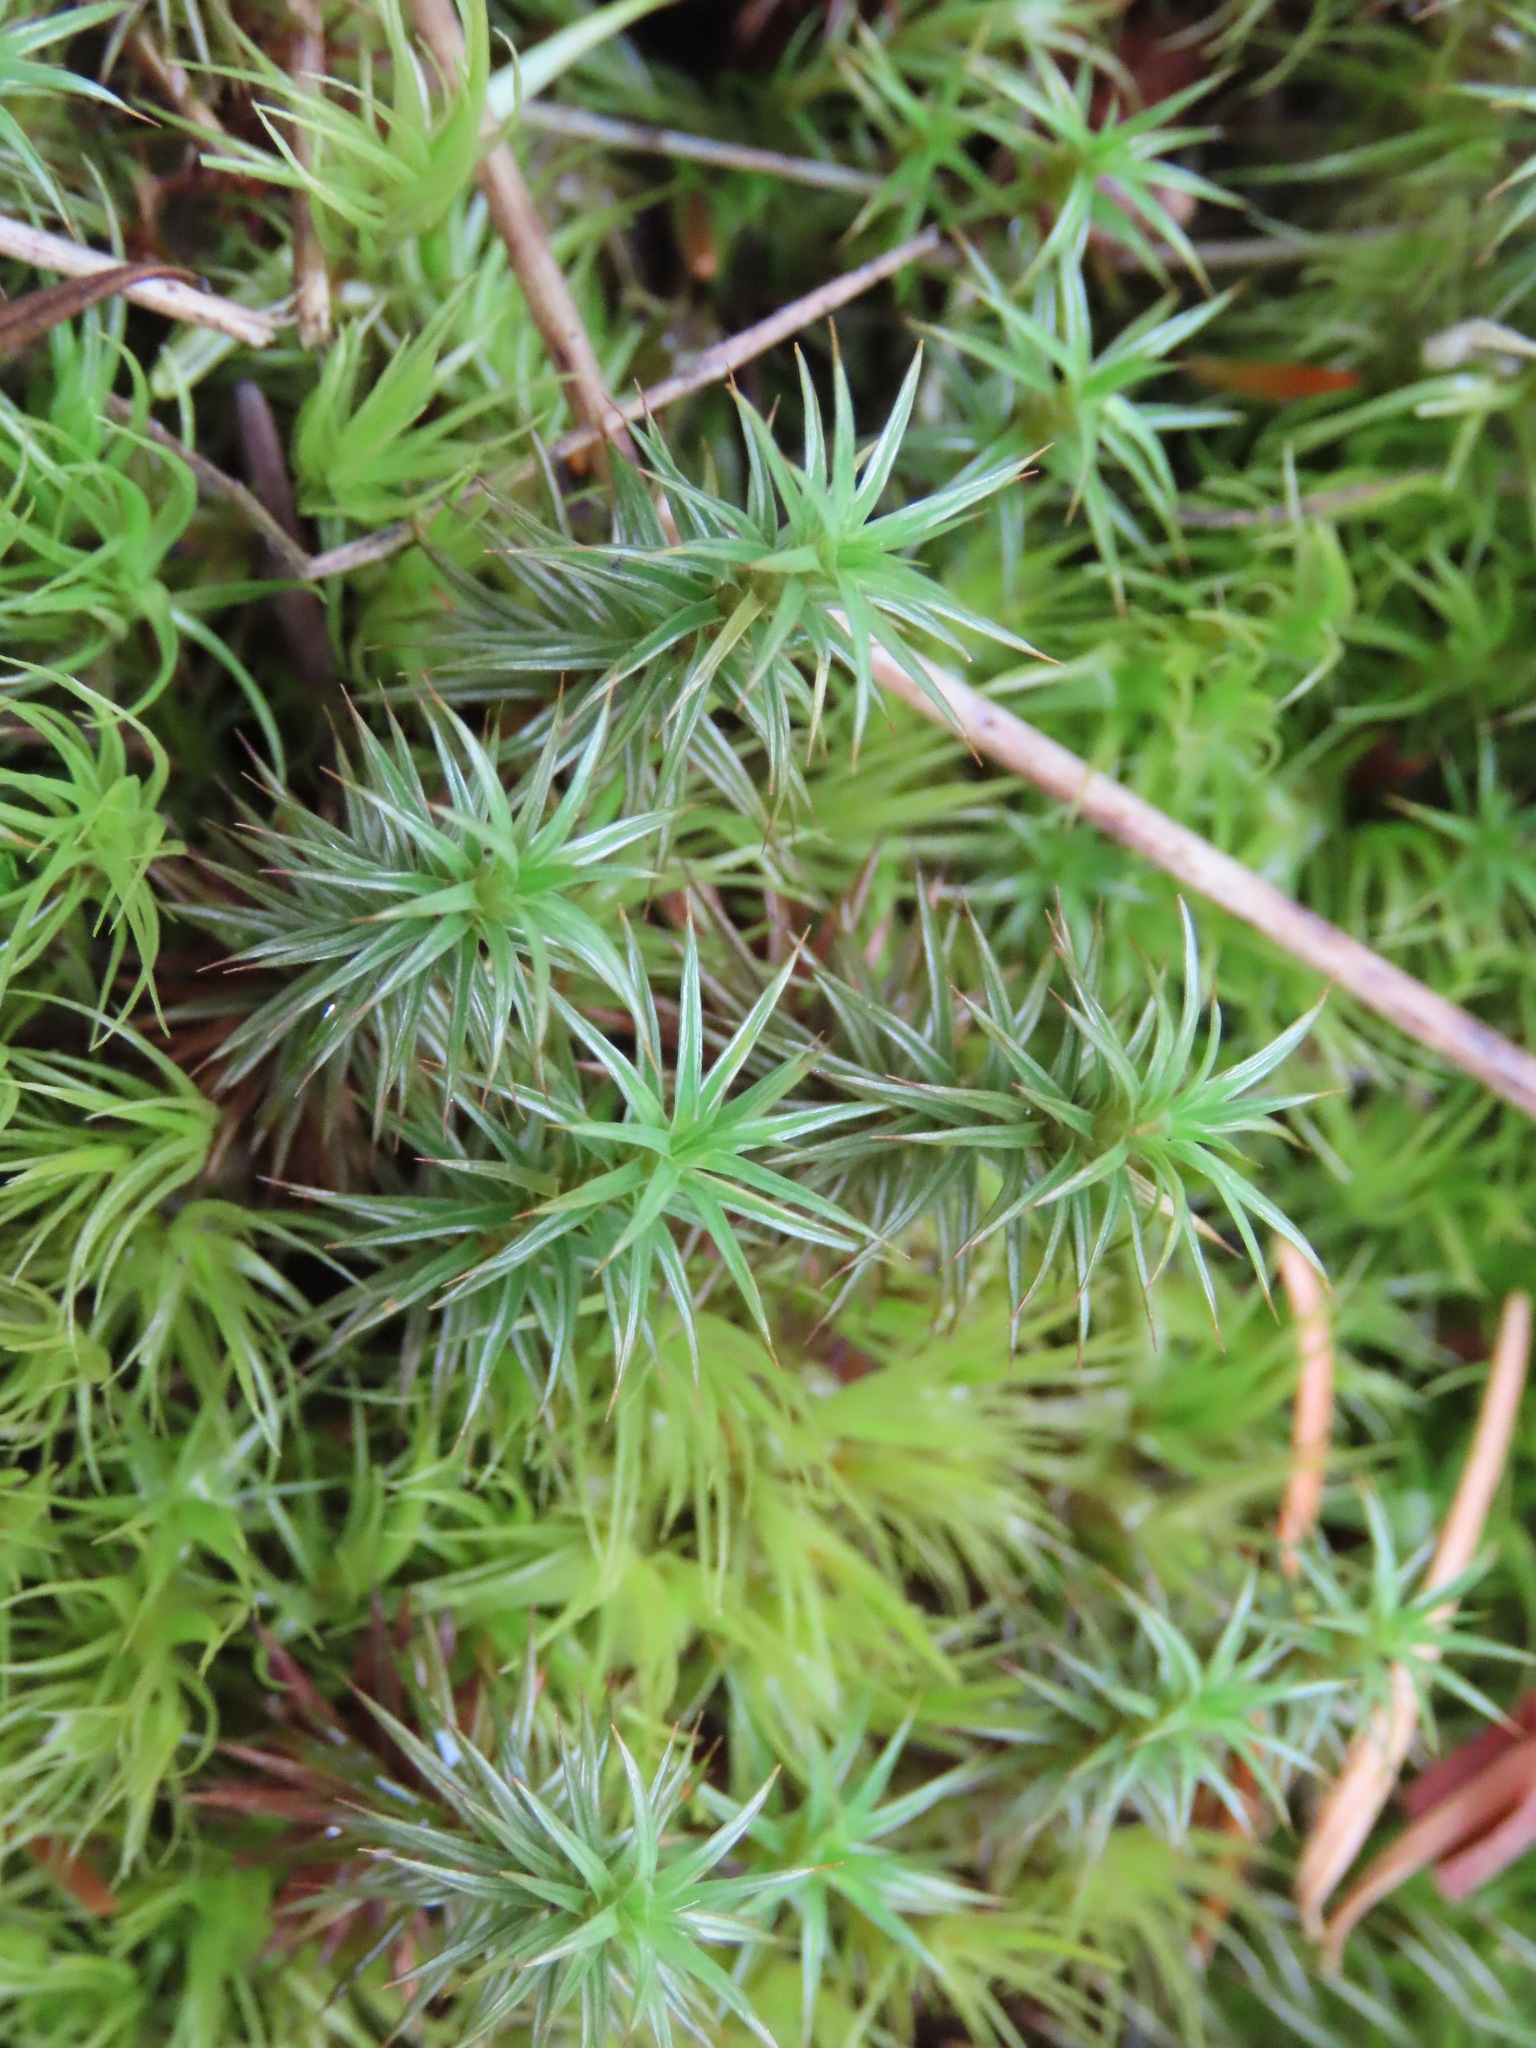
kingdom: Plantae
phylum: Bryophyta
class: Polytrichopsida
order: Polytrichales
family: Polytrichaceae
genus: Polytrichum
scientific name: Polytrichum juniperinum
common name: Juniper haircap moss
